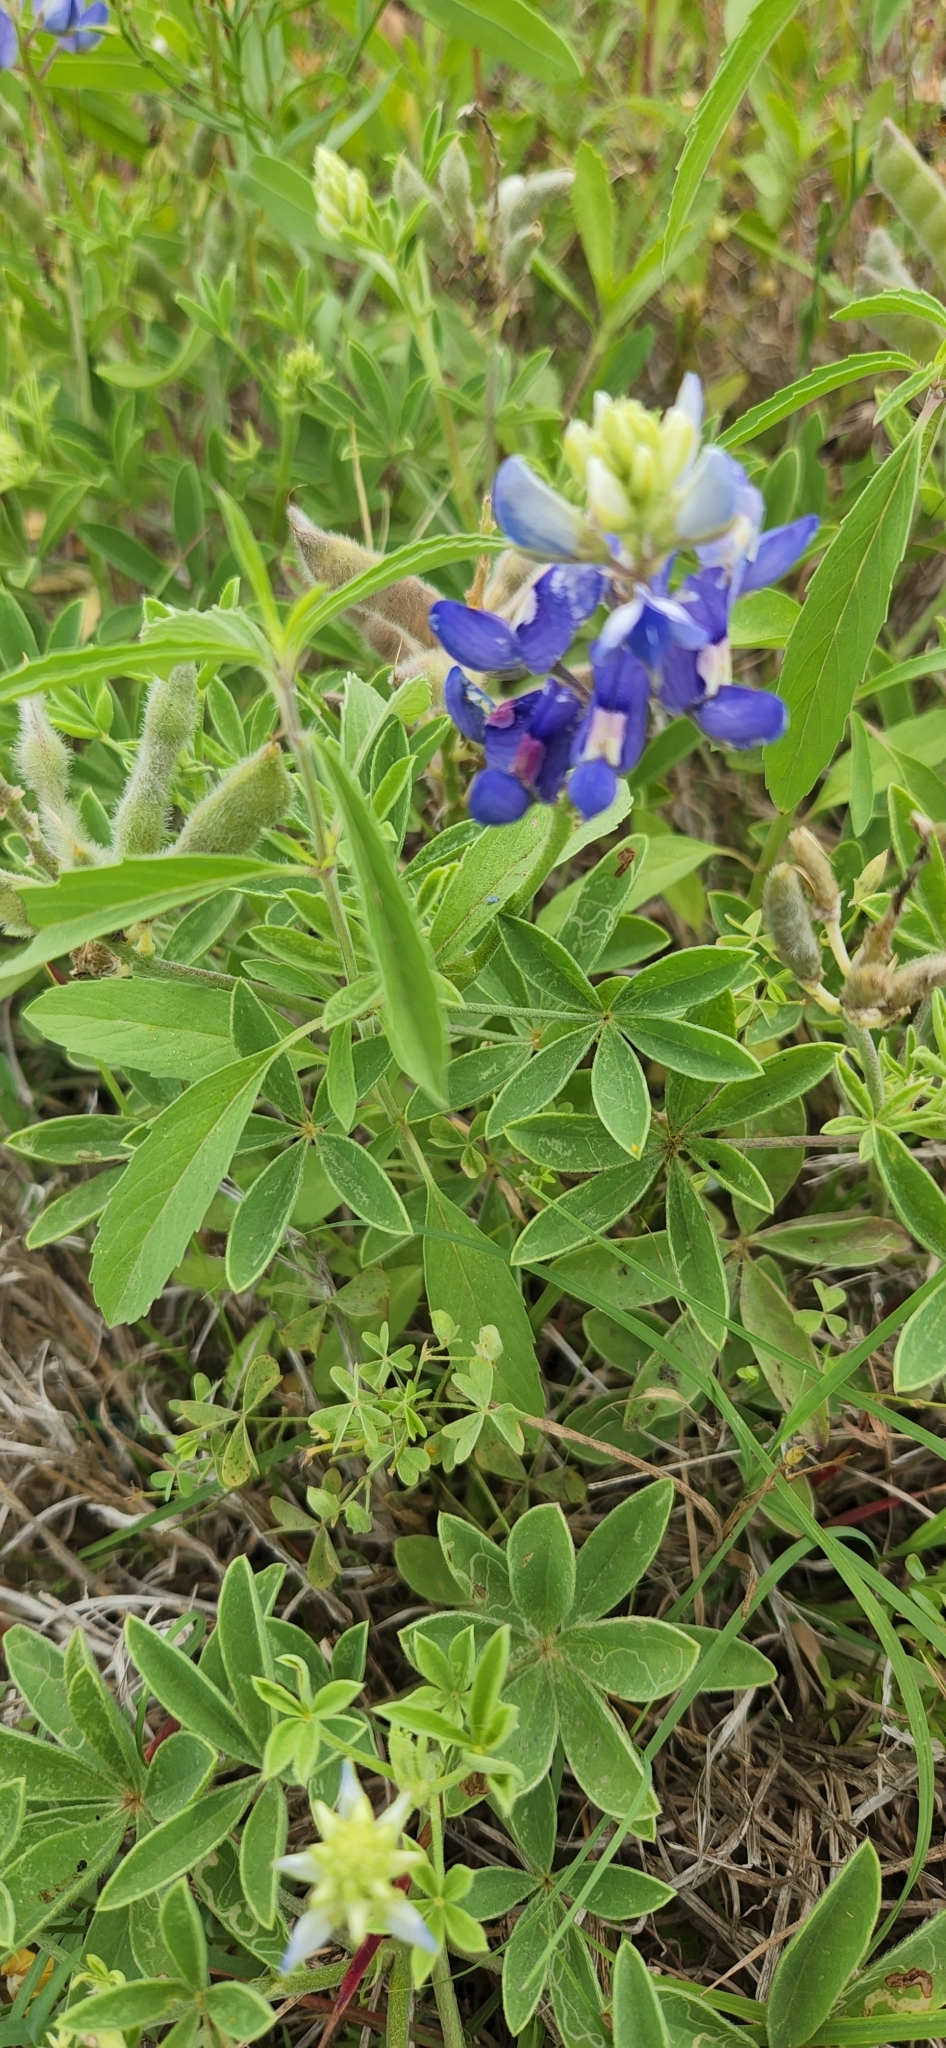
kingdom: Plantae
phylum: Tracheophyta
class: Magnoliopsida
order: Fabales
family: Fabaceae
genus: Lupinus
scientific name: Lupinus texensis
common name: Texas bluebonnet
